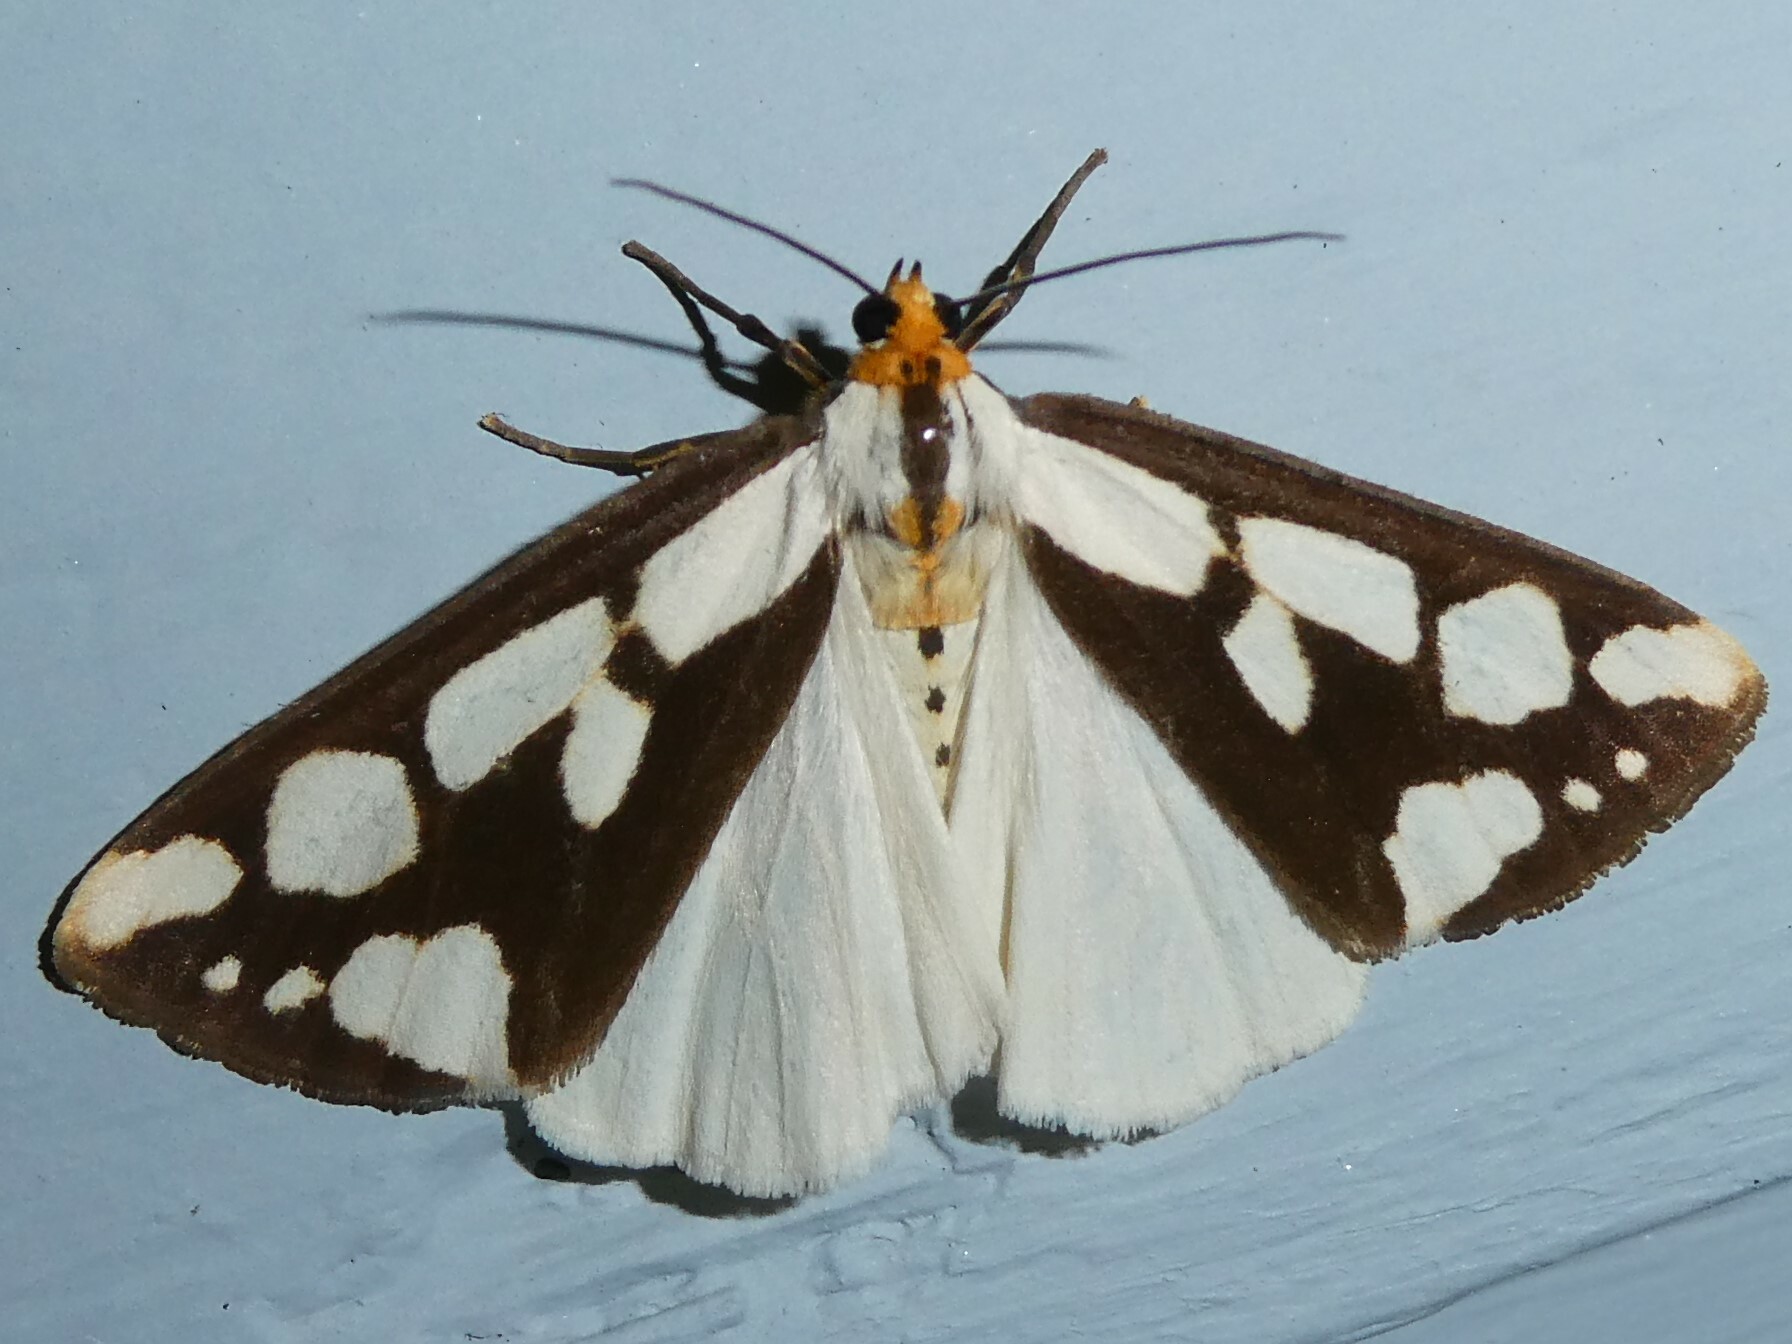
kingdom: Animalia
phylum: Arthropoda
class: Insecta
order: Lepidoptera
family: Erebidae
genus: Haploa
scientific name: Haploa confusa
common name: Confused haploa moth
